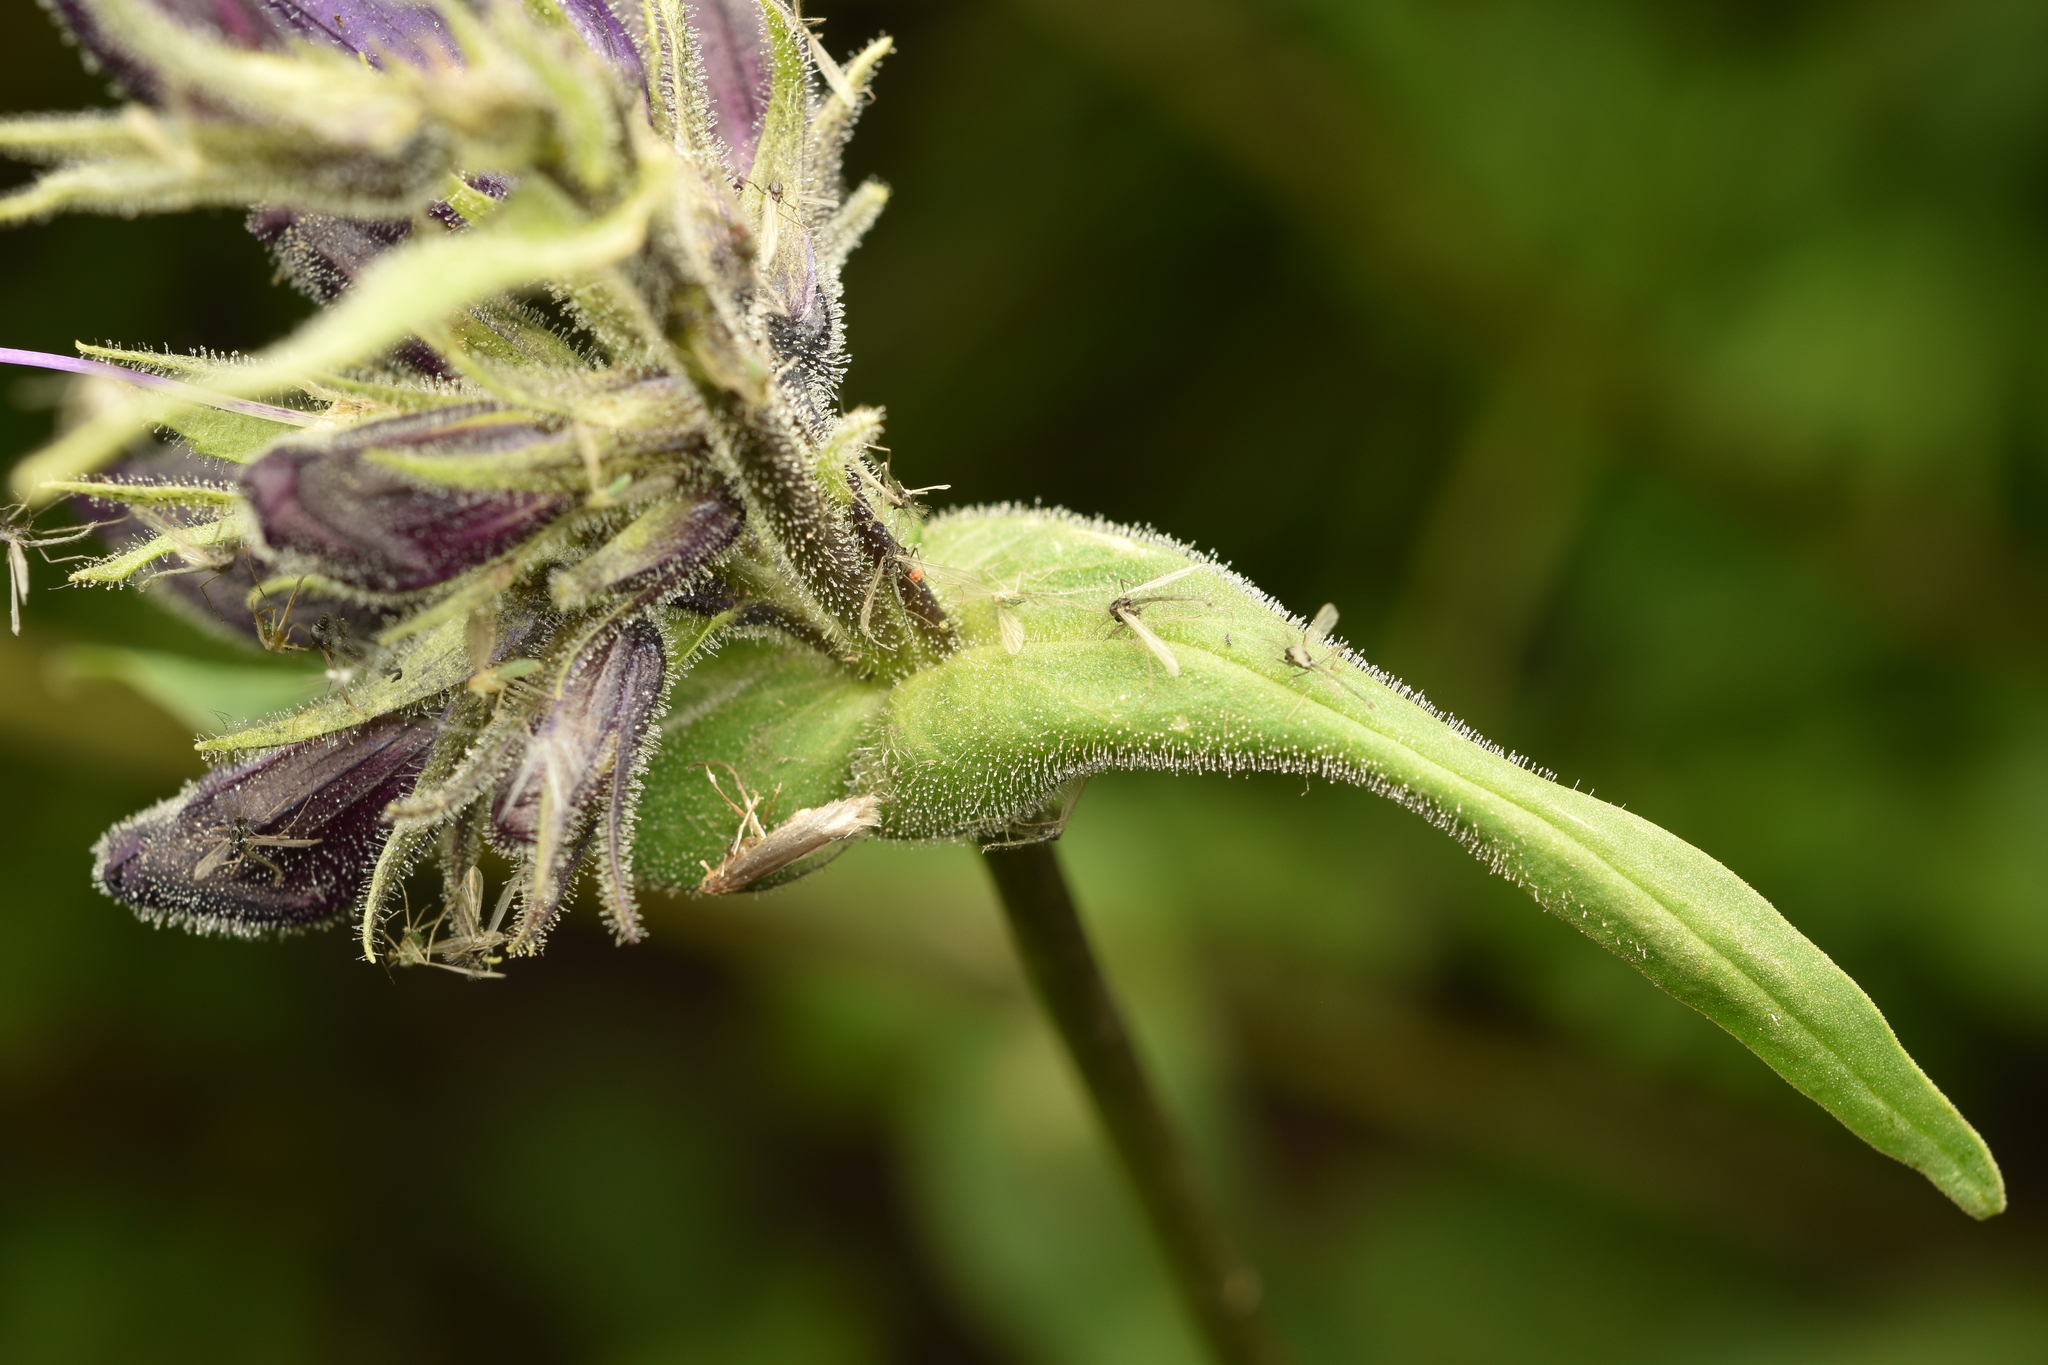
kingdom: Plantae
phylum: Tracheophyta
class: Magnoliopsida
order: Lamiales
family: Plantaginaceae
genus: Penstemon
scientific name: Penstemon whippleanus
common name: Whipple's penstemon
